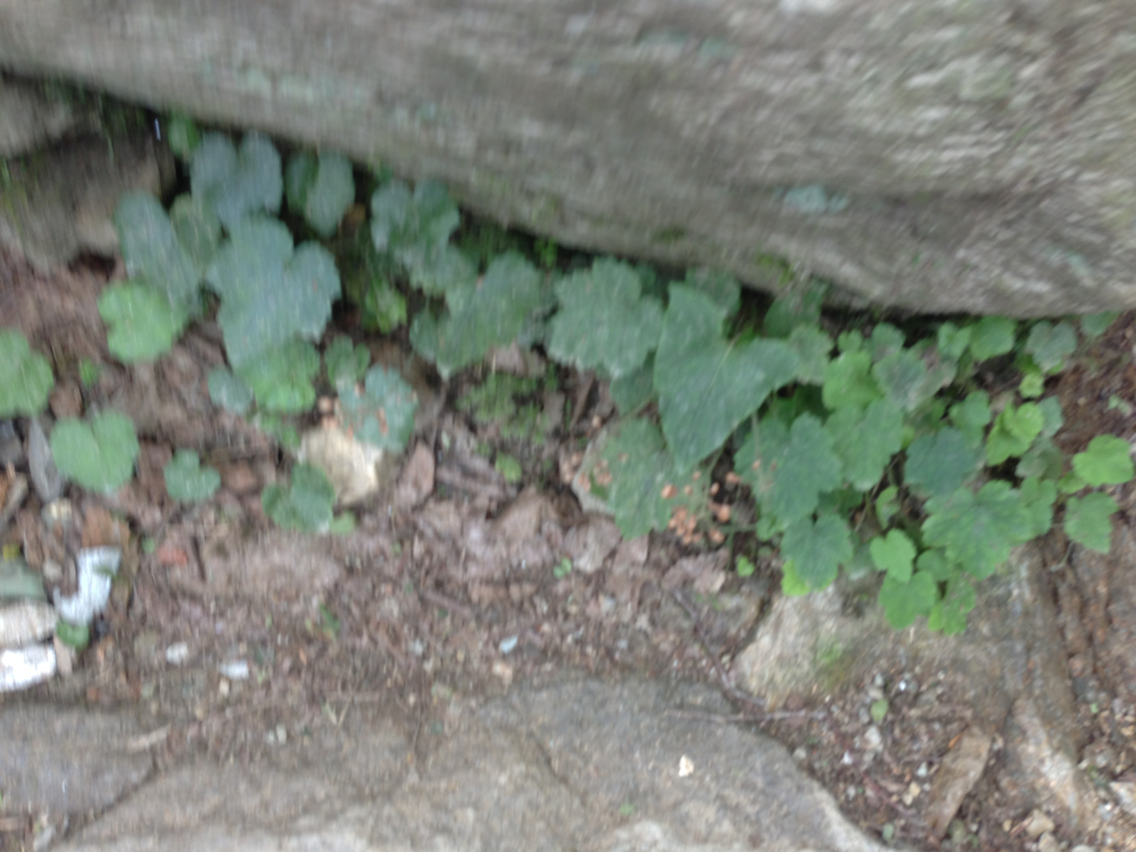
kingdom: Plantae
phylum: Tracheophyta
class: Magnoliopsida
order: Saxifragales
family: Saxifragaceae
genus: Tiarella
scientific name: Tiarella stolonifera
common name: Stoloniferous foamflower
